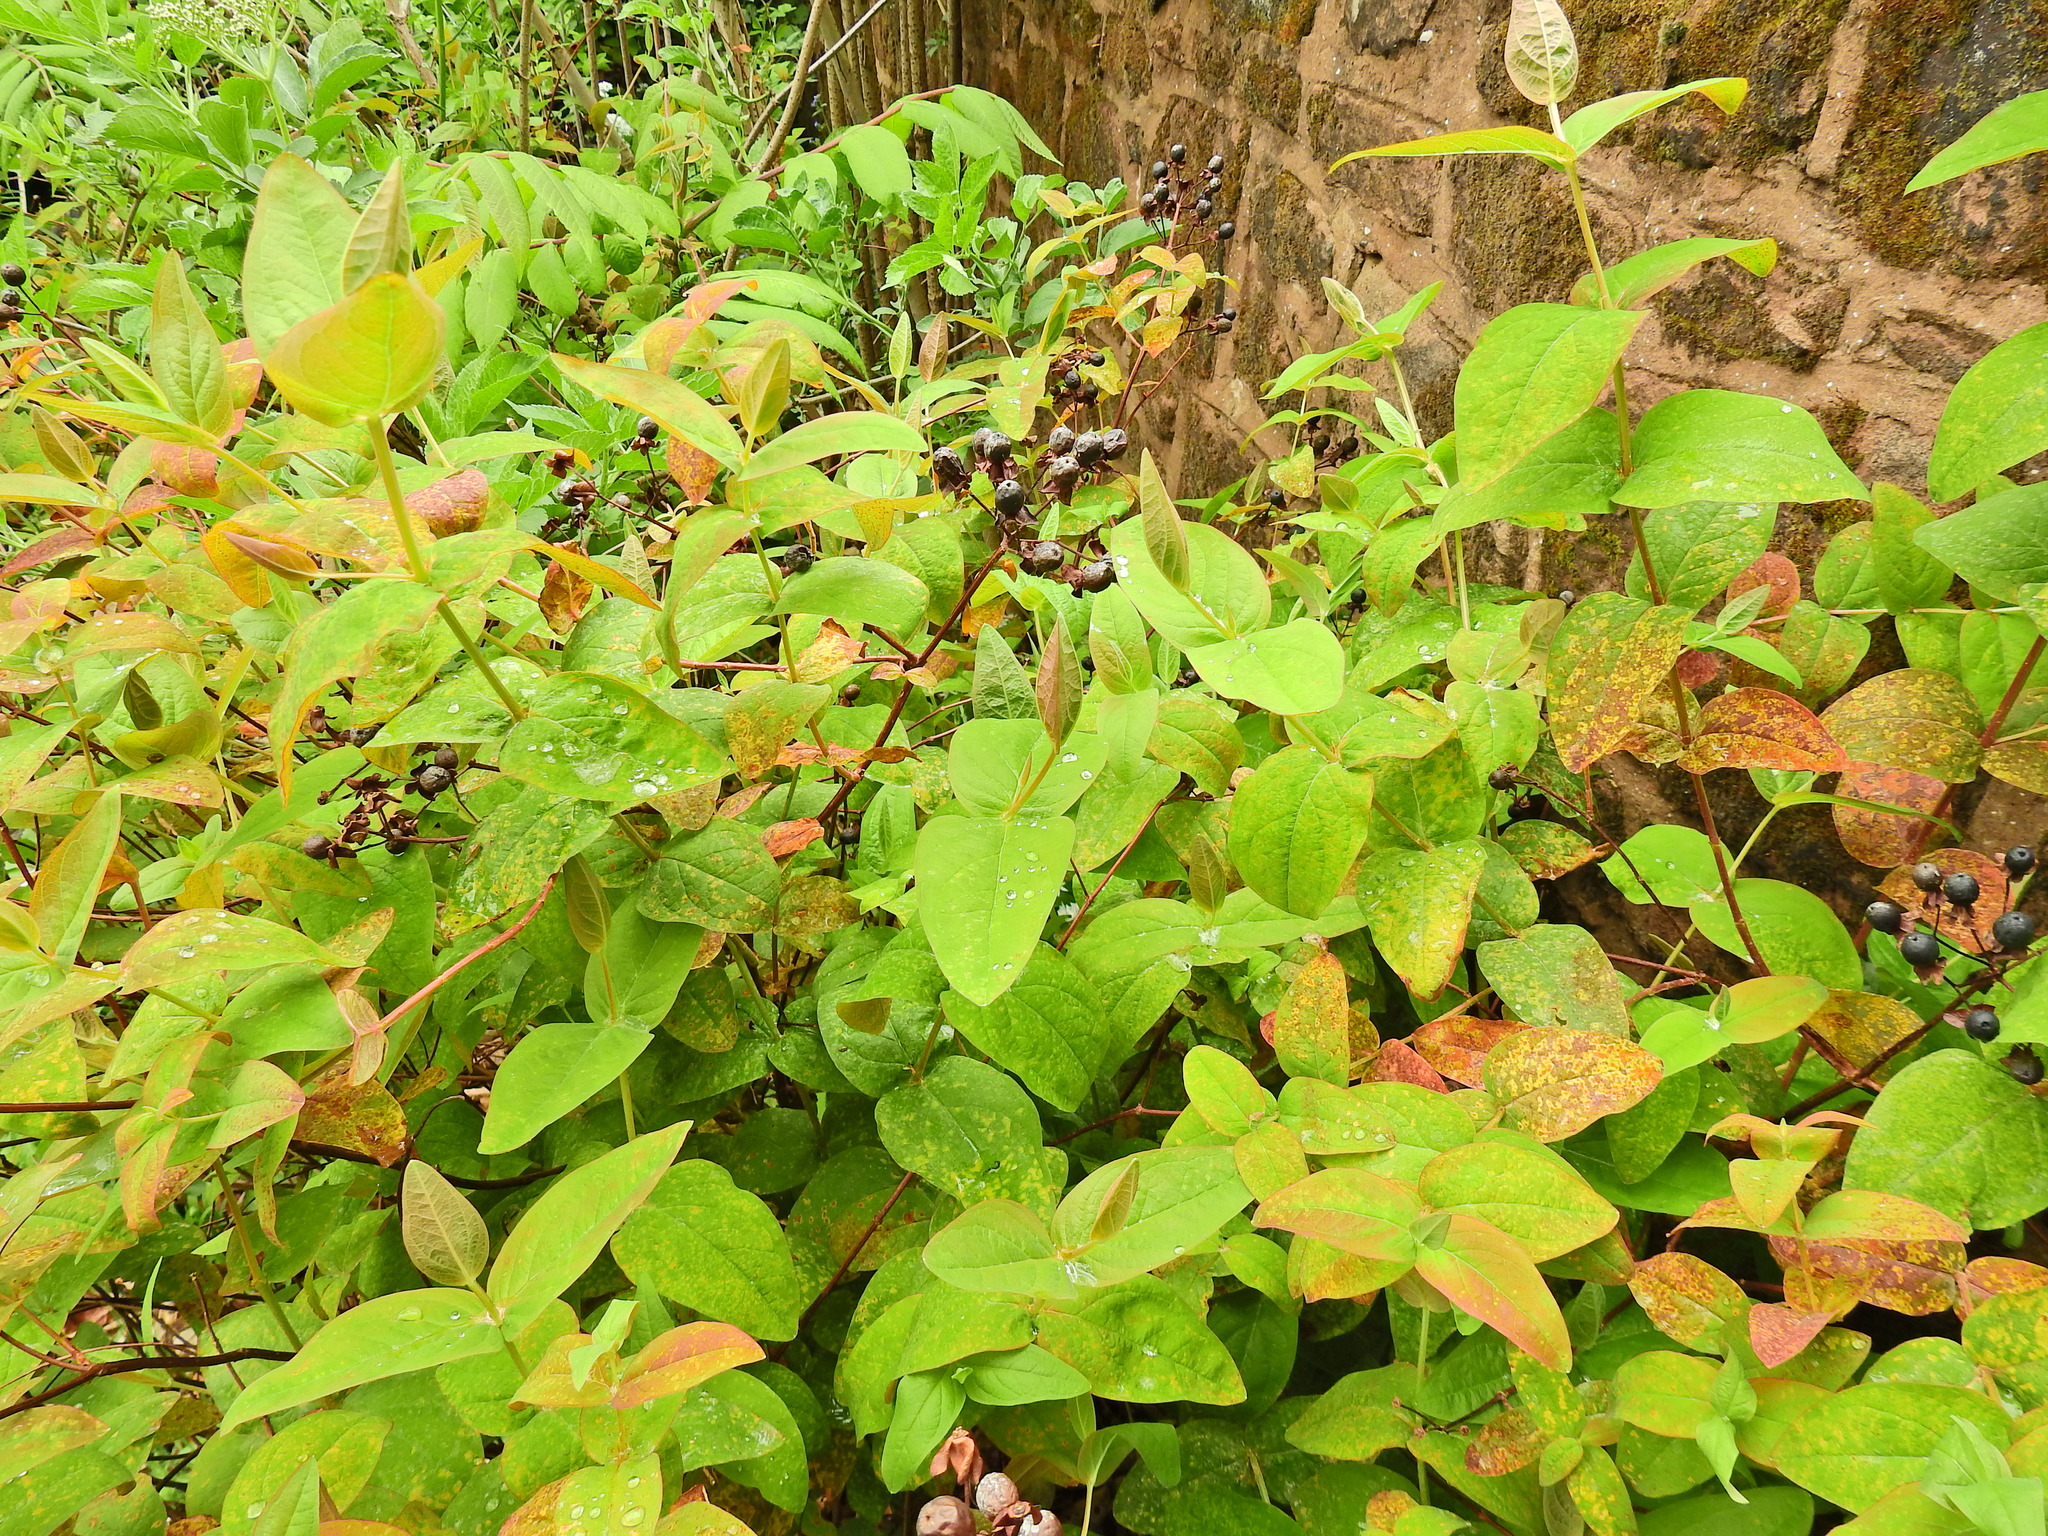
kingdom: Plantae
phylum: Tracheophyta
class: Magnoliopsida
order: Malpighiales
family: Hypericaceae
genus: Hypericum
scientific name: Hypericum androsaemum
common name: Sweet-amber
